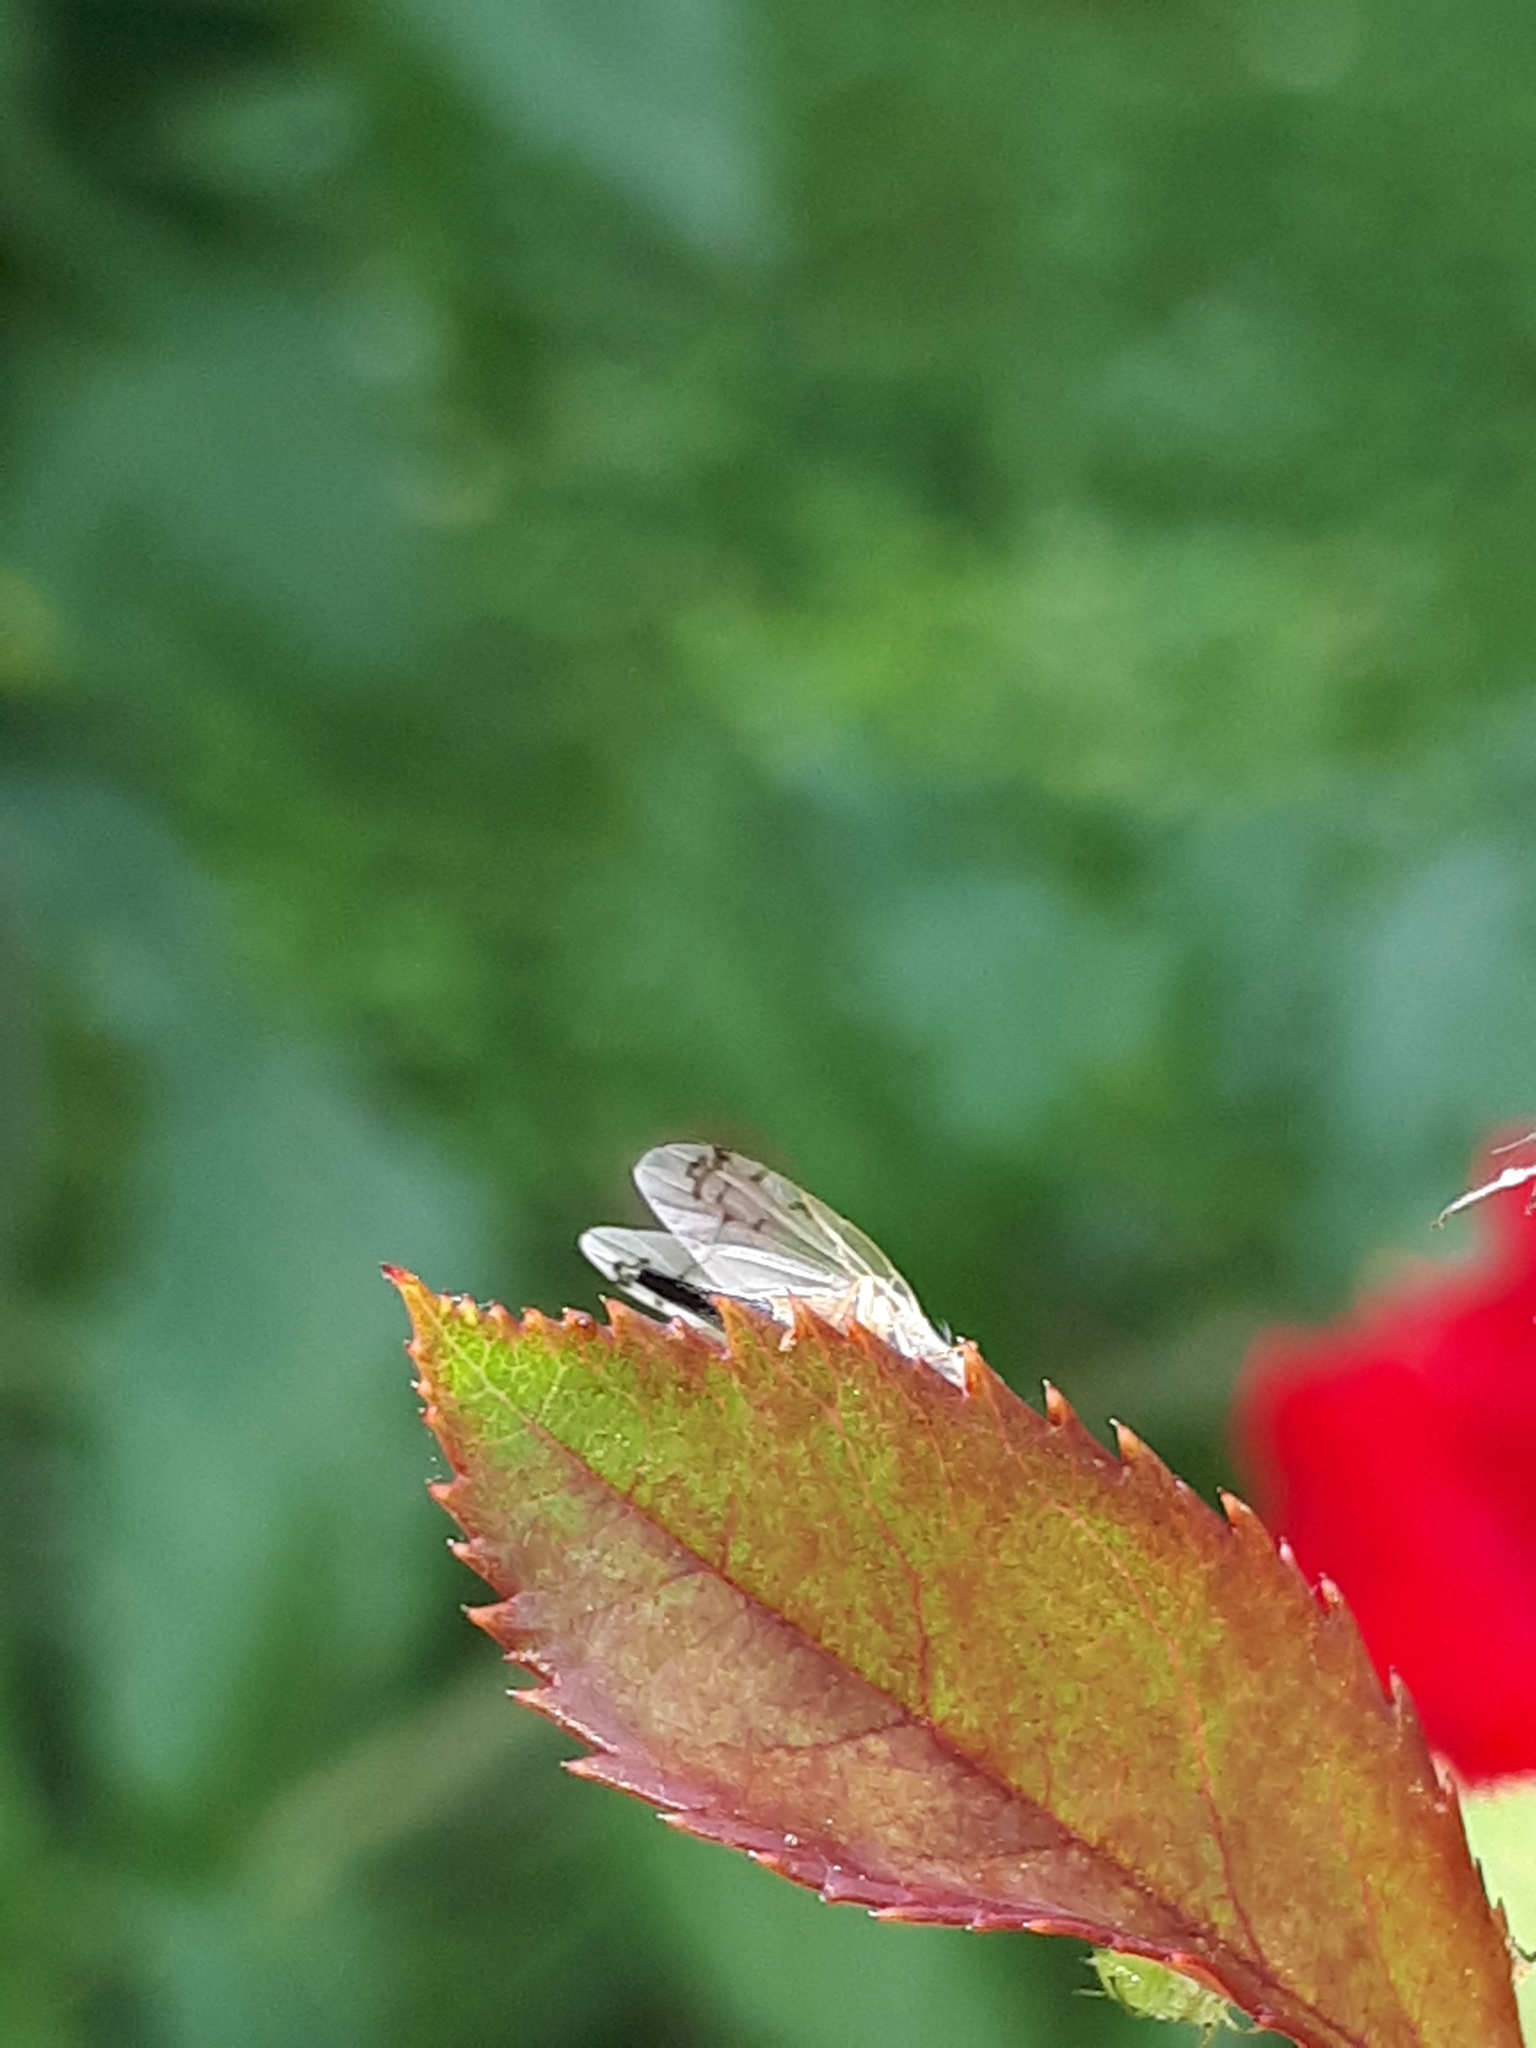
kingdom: Animalia
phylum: Arthropoda
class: Insecta
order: Diptera
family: Tephritidae
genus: Acanthiophilus
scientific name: Acanthiophilus helianthi
